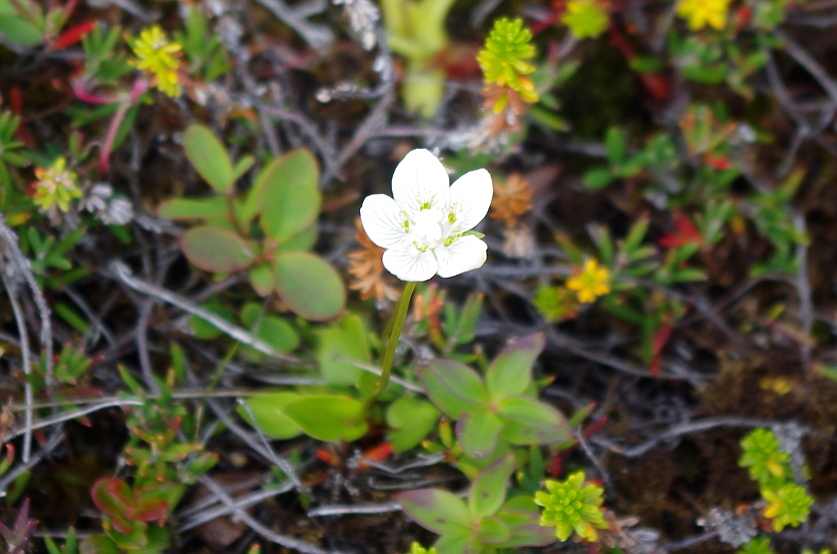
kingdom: Plantae
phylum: Tracheophyta
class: Magnoliopsida
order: Celastrales
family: Parnassiaceae
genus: Parnassia
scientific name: Parnassia palustris
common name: Grass-of-parnassus
